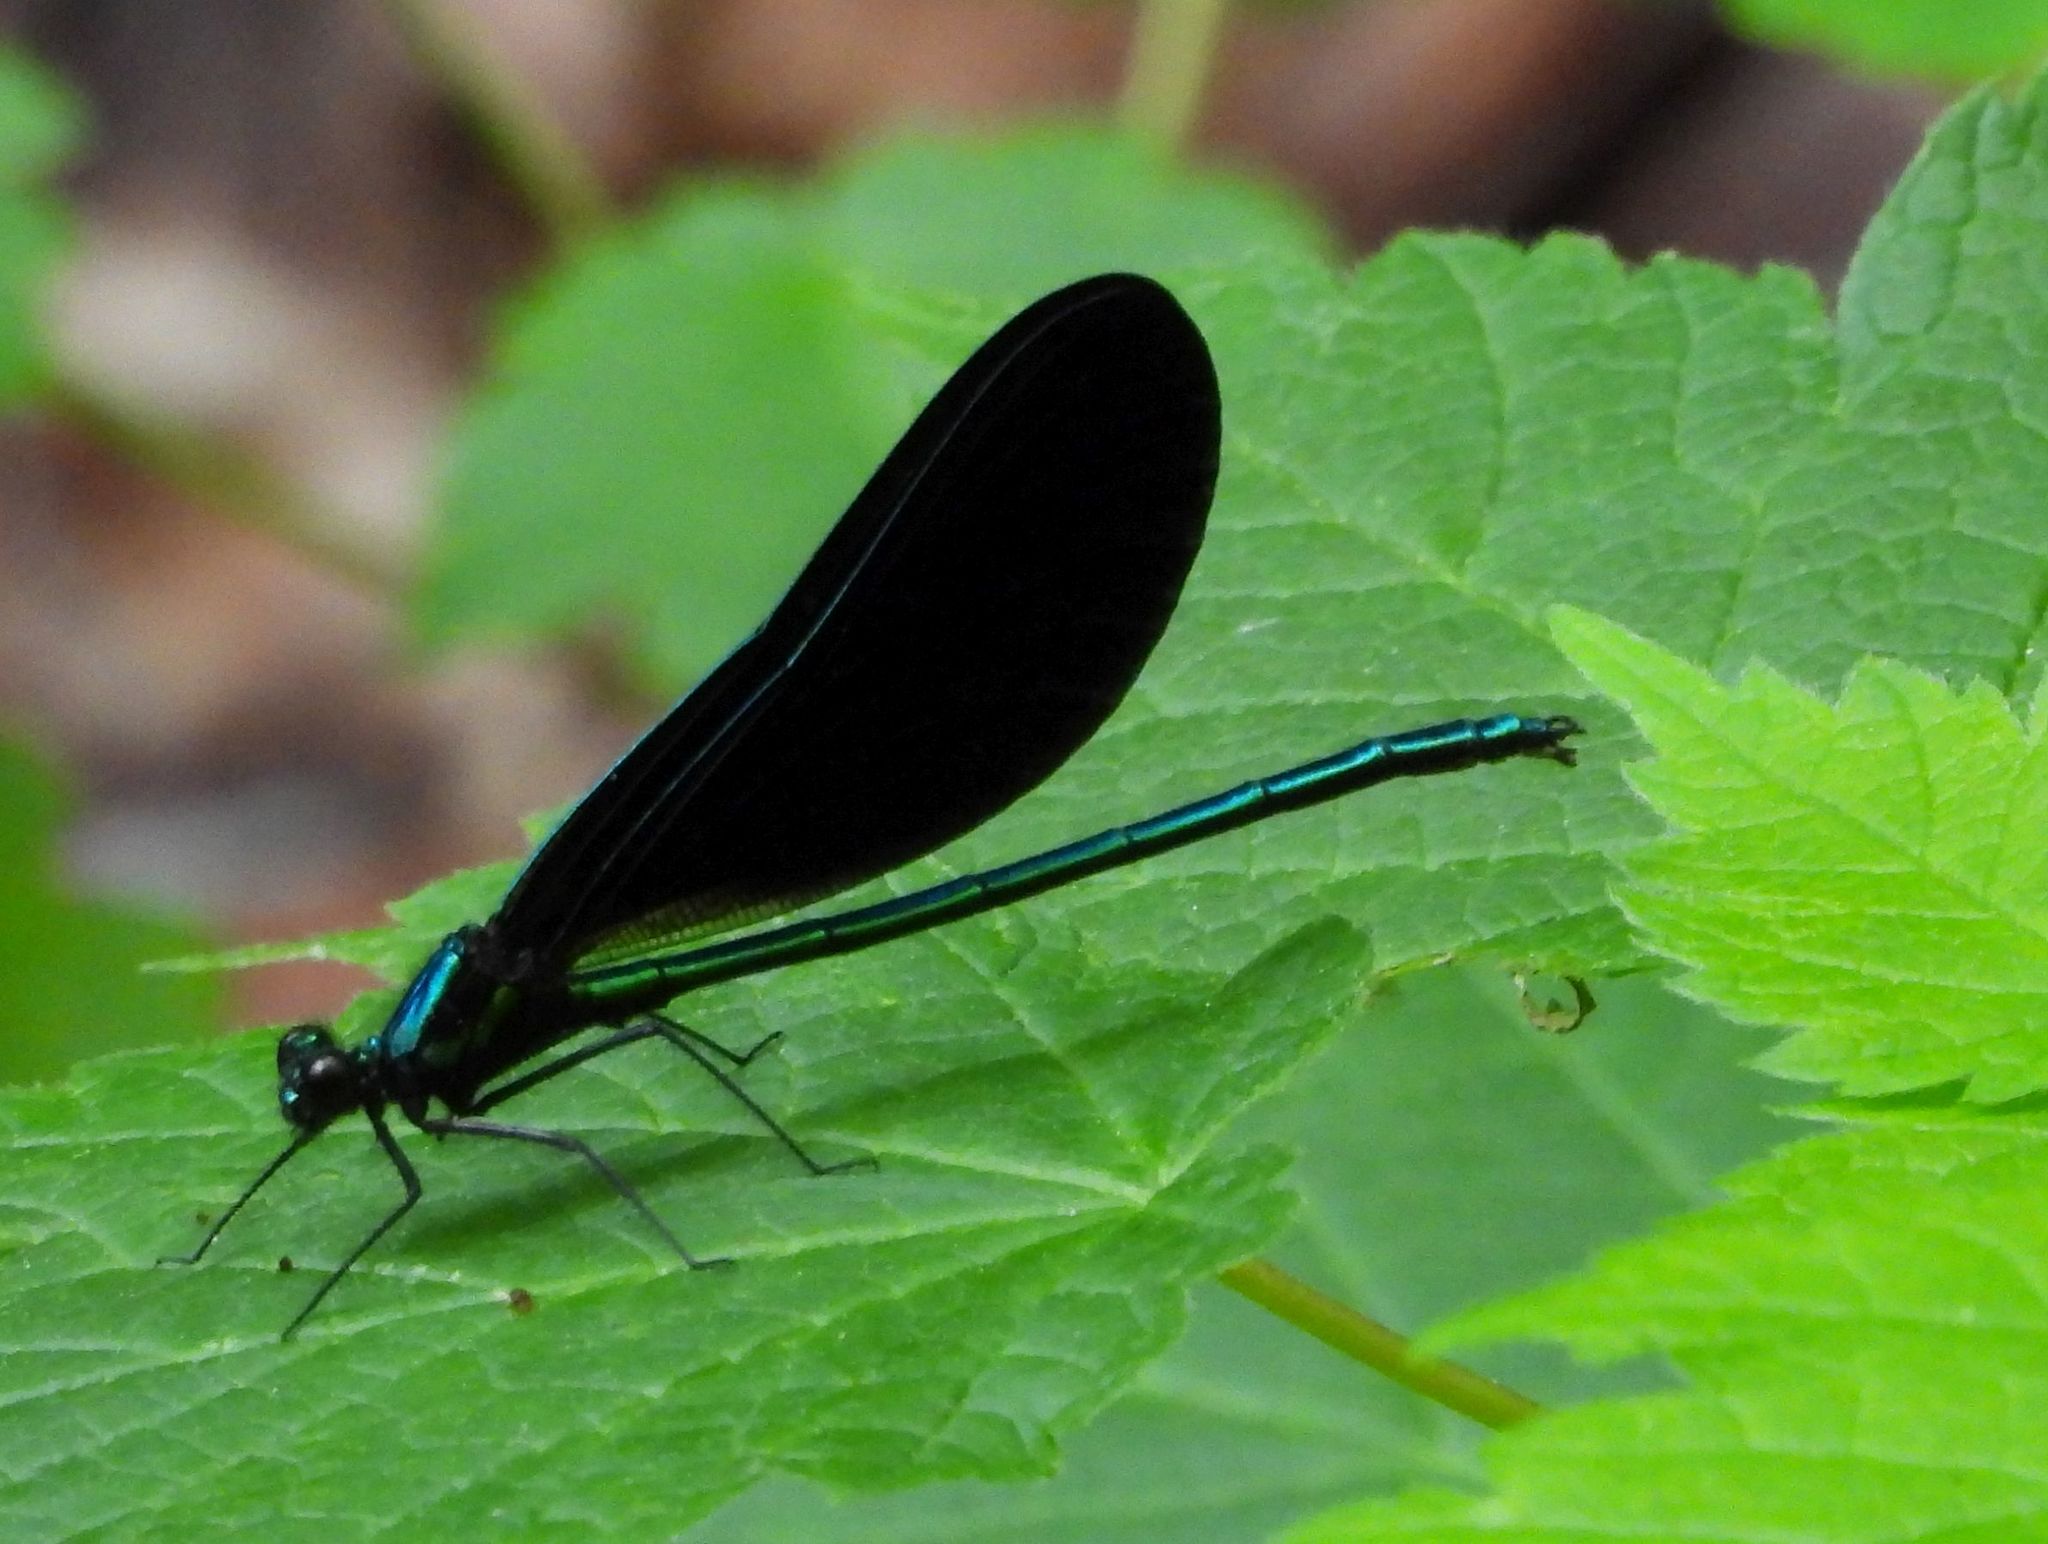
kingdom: Animalia
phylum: Arthropoda
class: Insecta
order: Odonata
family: Calopterygidae
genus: Calopteryx
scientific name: Calopteryx maculata
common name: Ebony jewelwing
